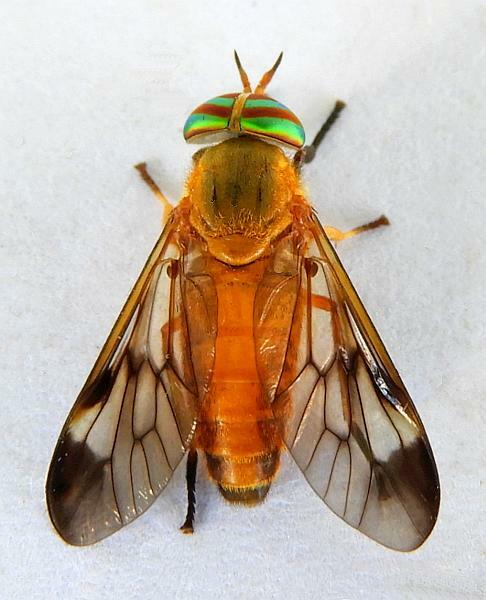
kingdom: Animalia
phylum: Arthropoda
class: Insecta
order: Diptera
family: Tabanidae
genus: Diachlorus
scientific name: Diachlorus ferrugatus
